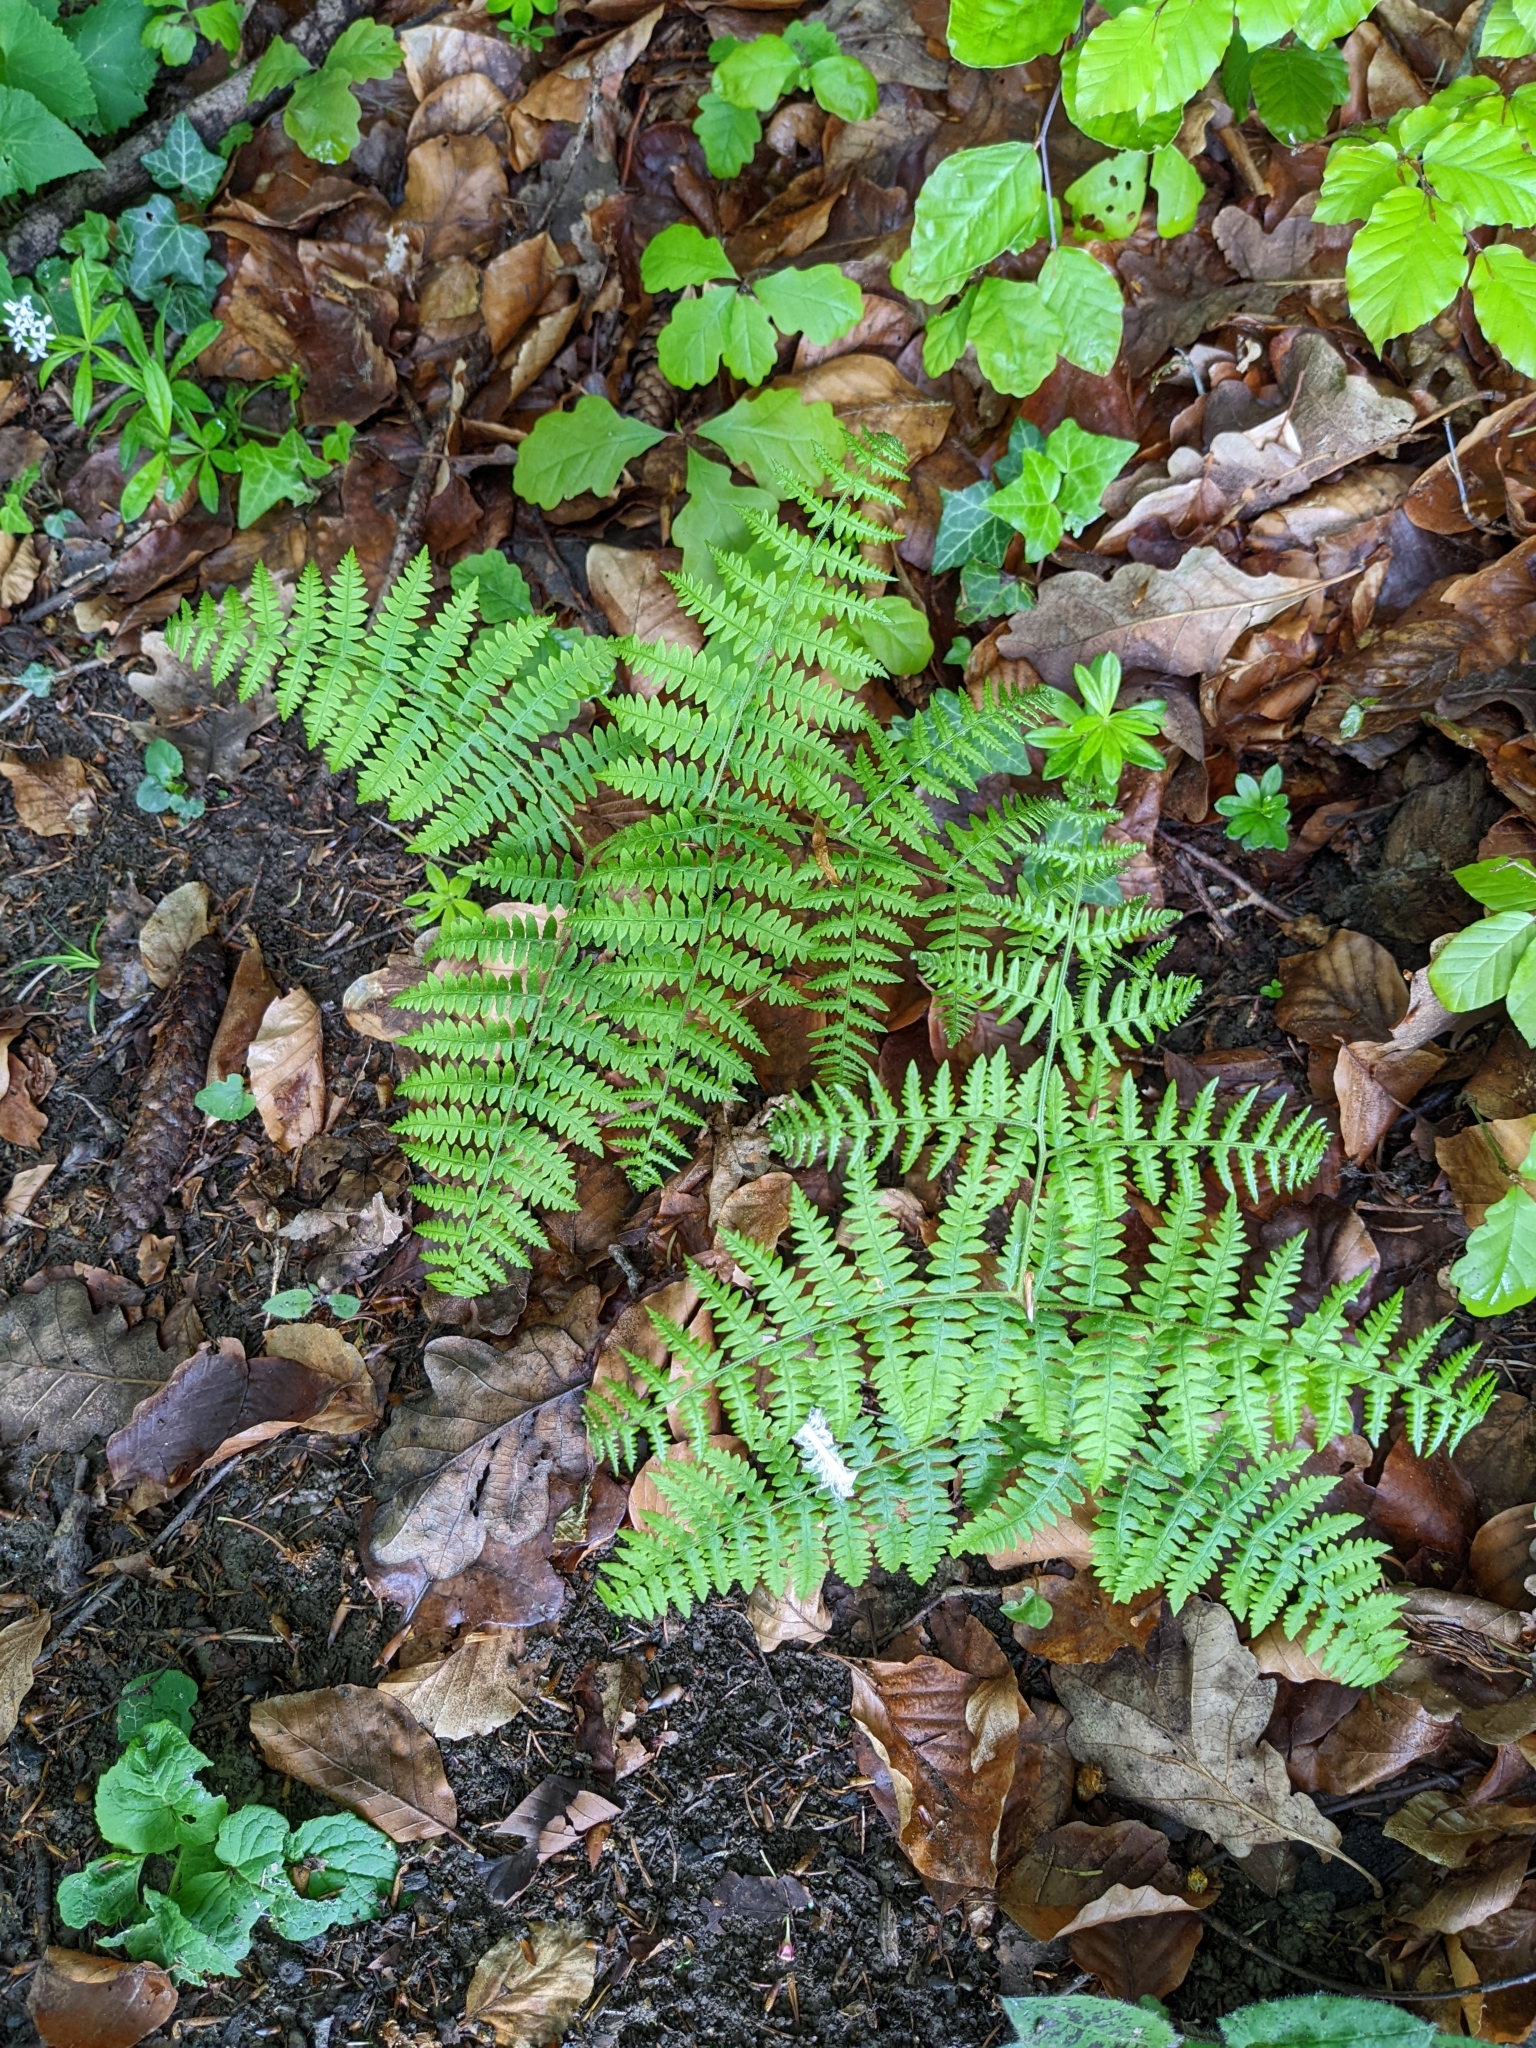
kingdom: Plantae
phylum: Tracheophyta
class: Polypodiopsida
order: Polypodiales
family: Dennstaedtiaceae
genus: Pteridium
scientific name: Pteridium aquilinum
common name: Bracken
